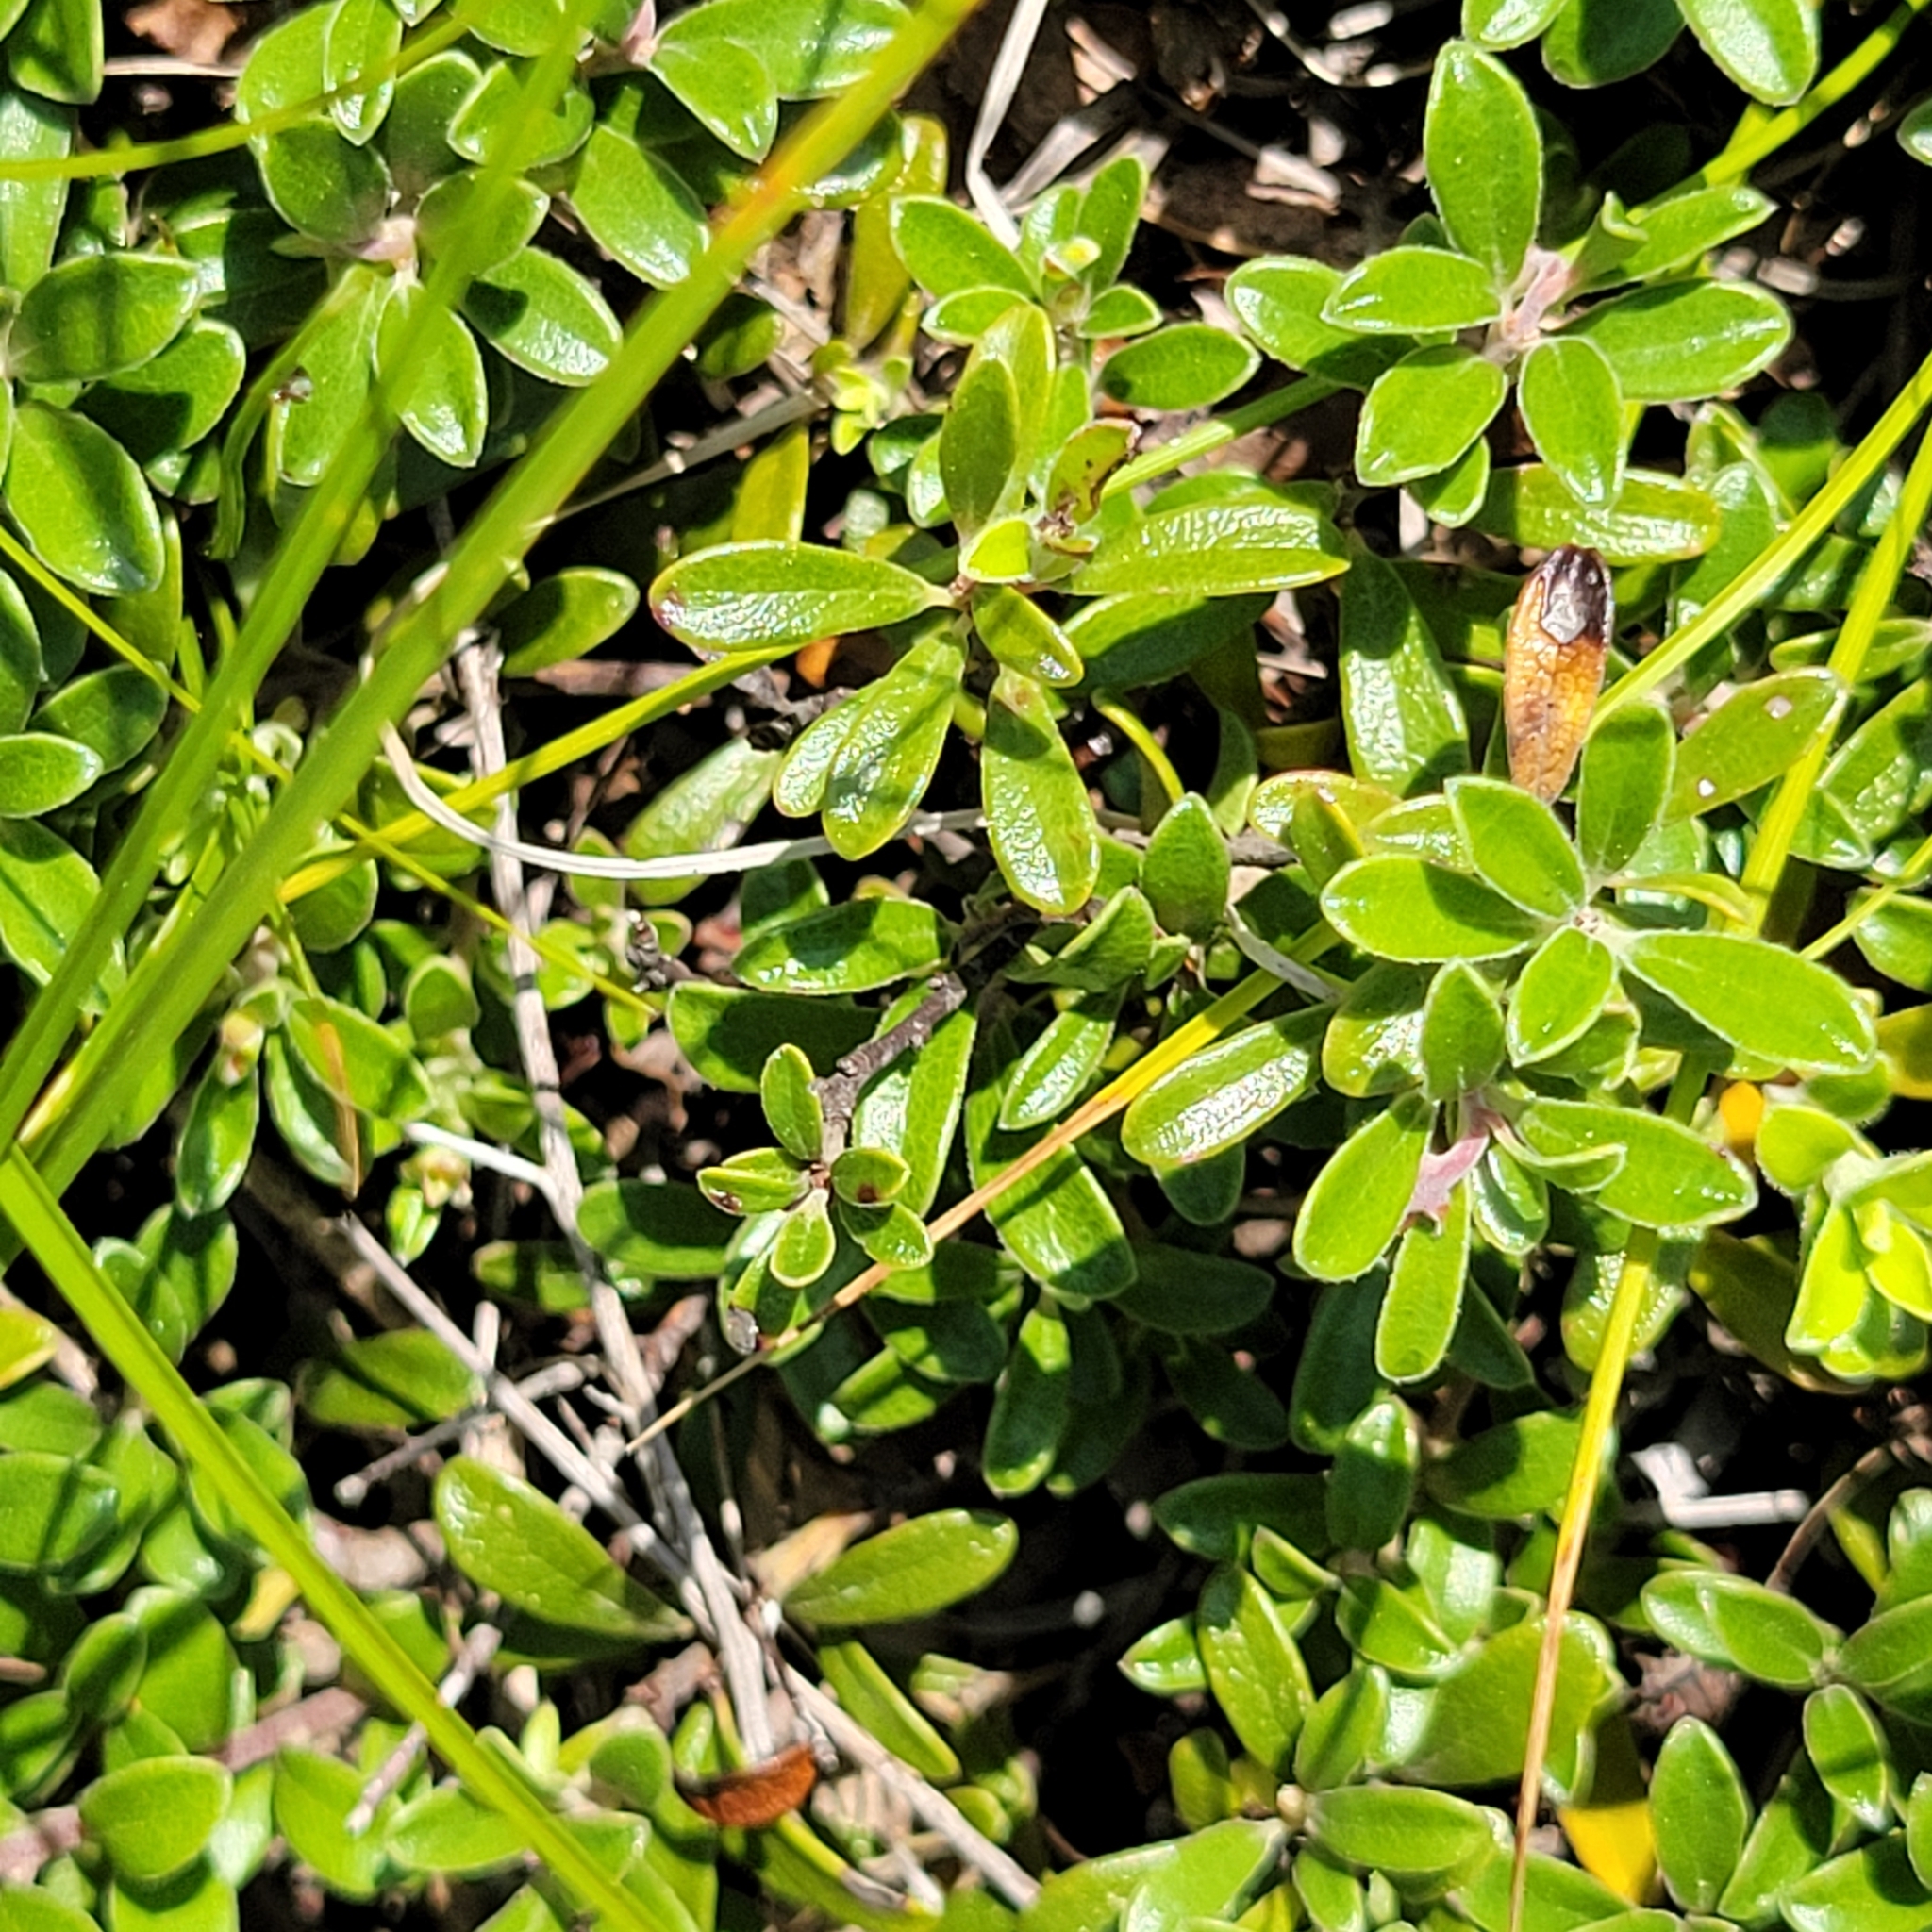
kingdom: Plantae
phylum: Tracheophyta
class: Magnoliopsida
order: Ericales
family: Ericaceae
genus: Arctostaphylos
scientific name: Arctostaphylos uva-ursi
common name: Bearberry
